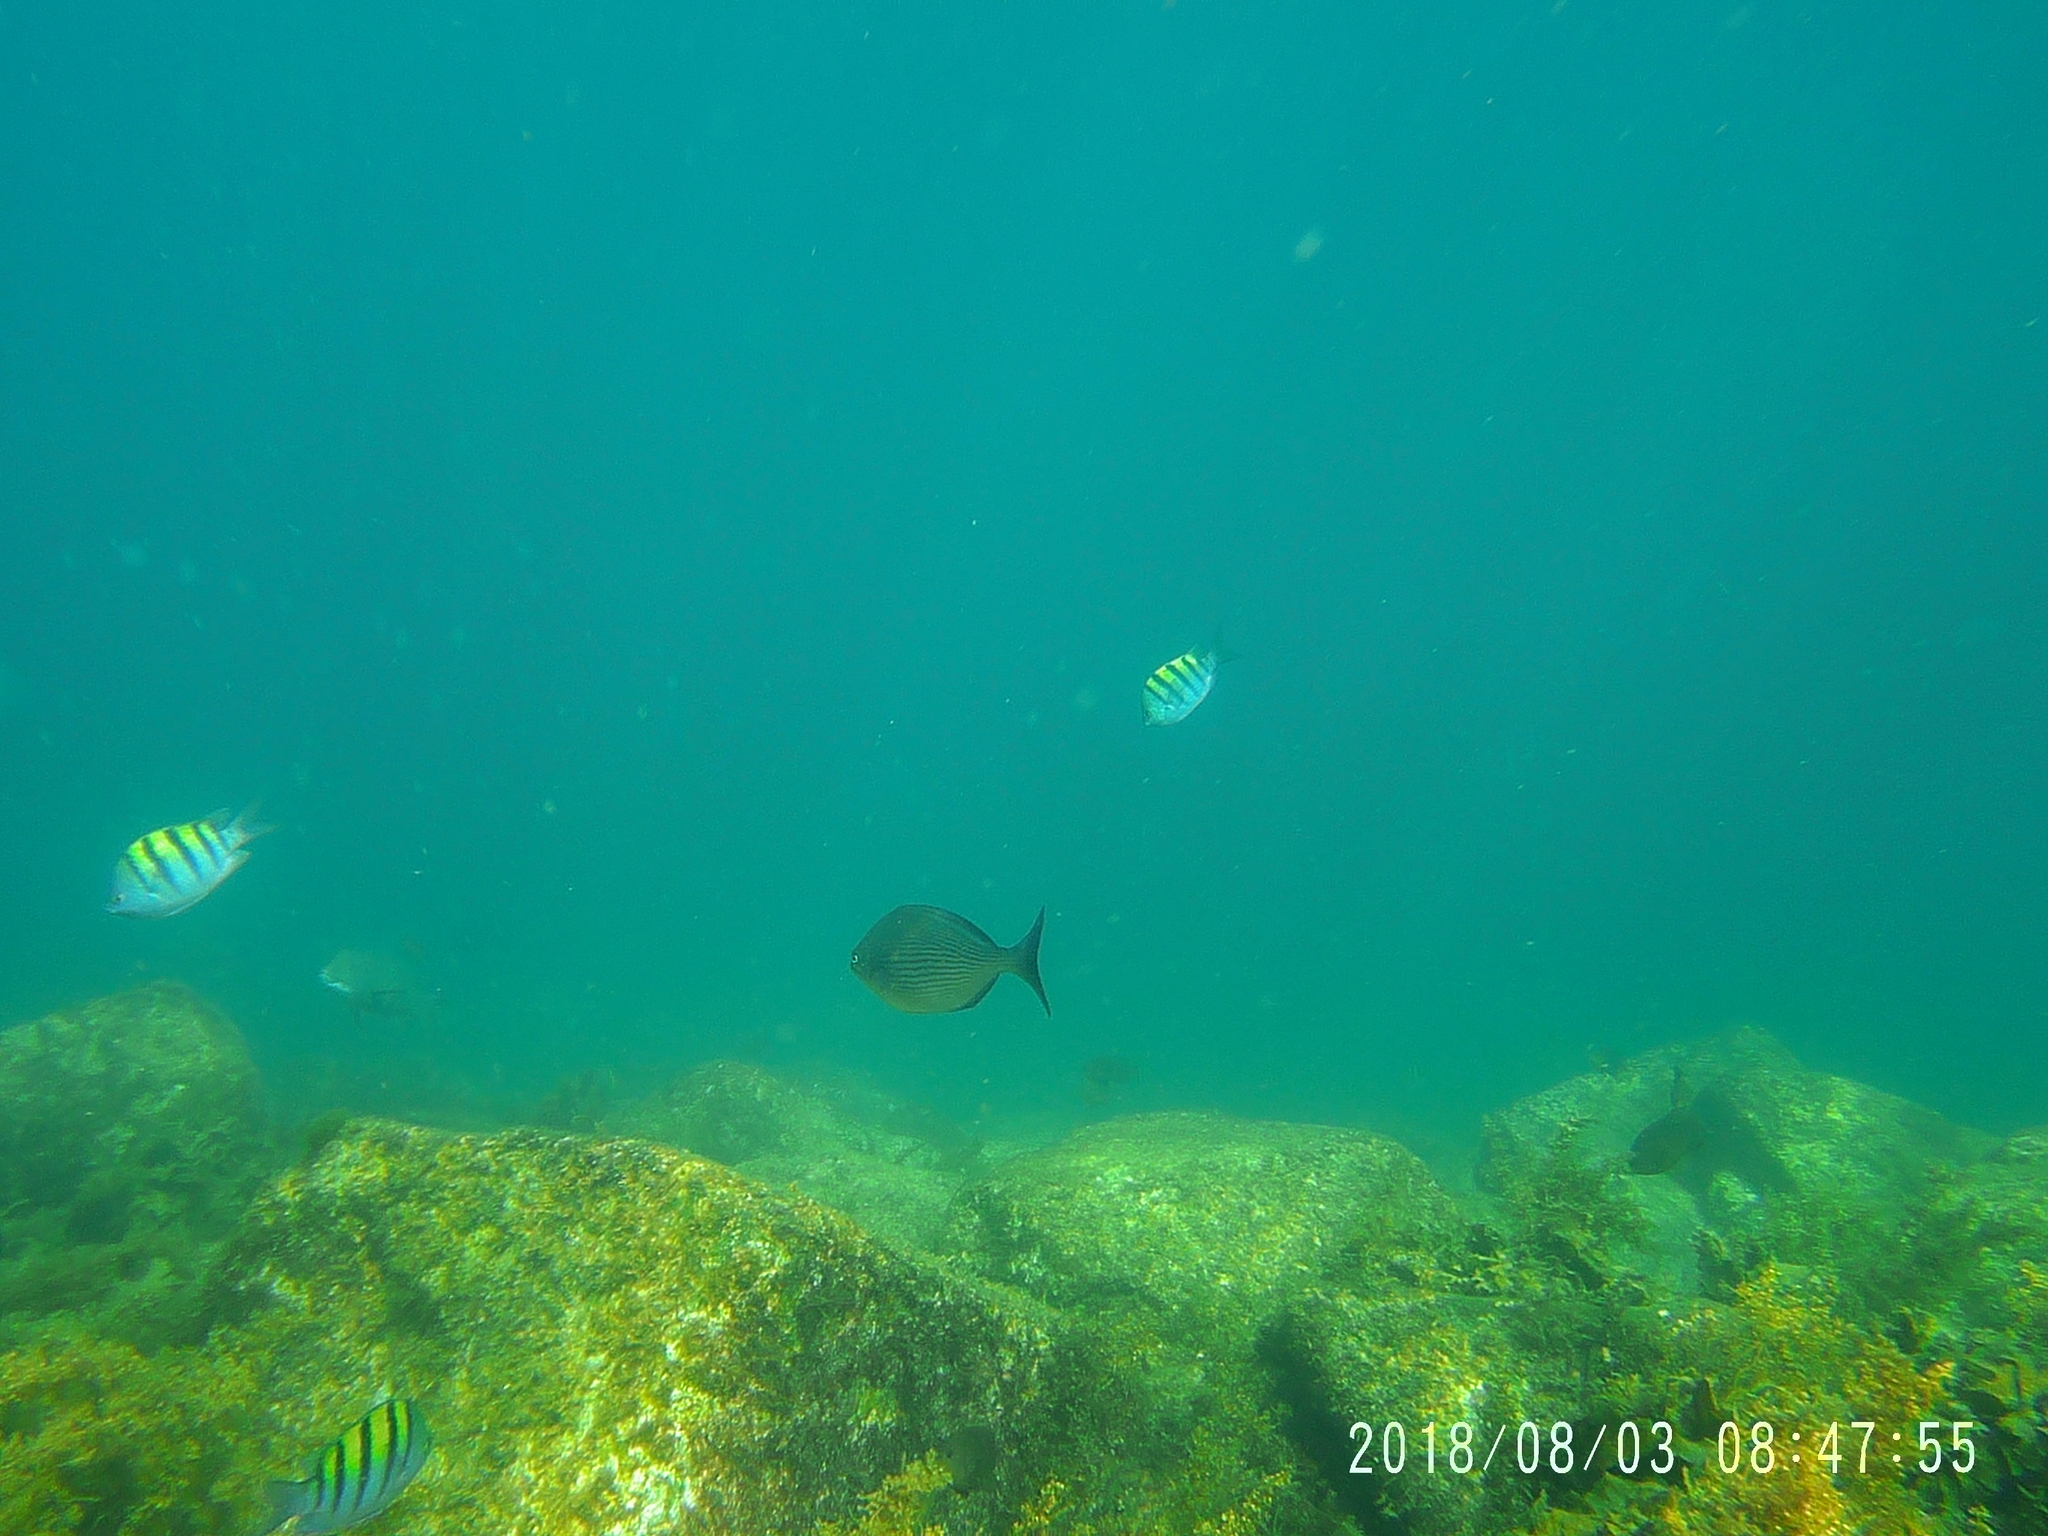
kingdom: Animalia
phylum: Chordata
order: Perciformes
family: Kyphosidae
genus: Kyphosus
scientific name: Kyphosus vaigiensis
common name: Brassy chub
